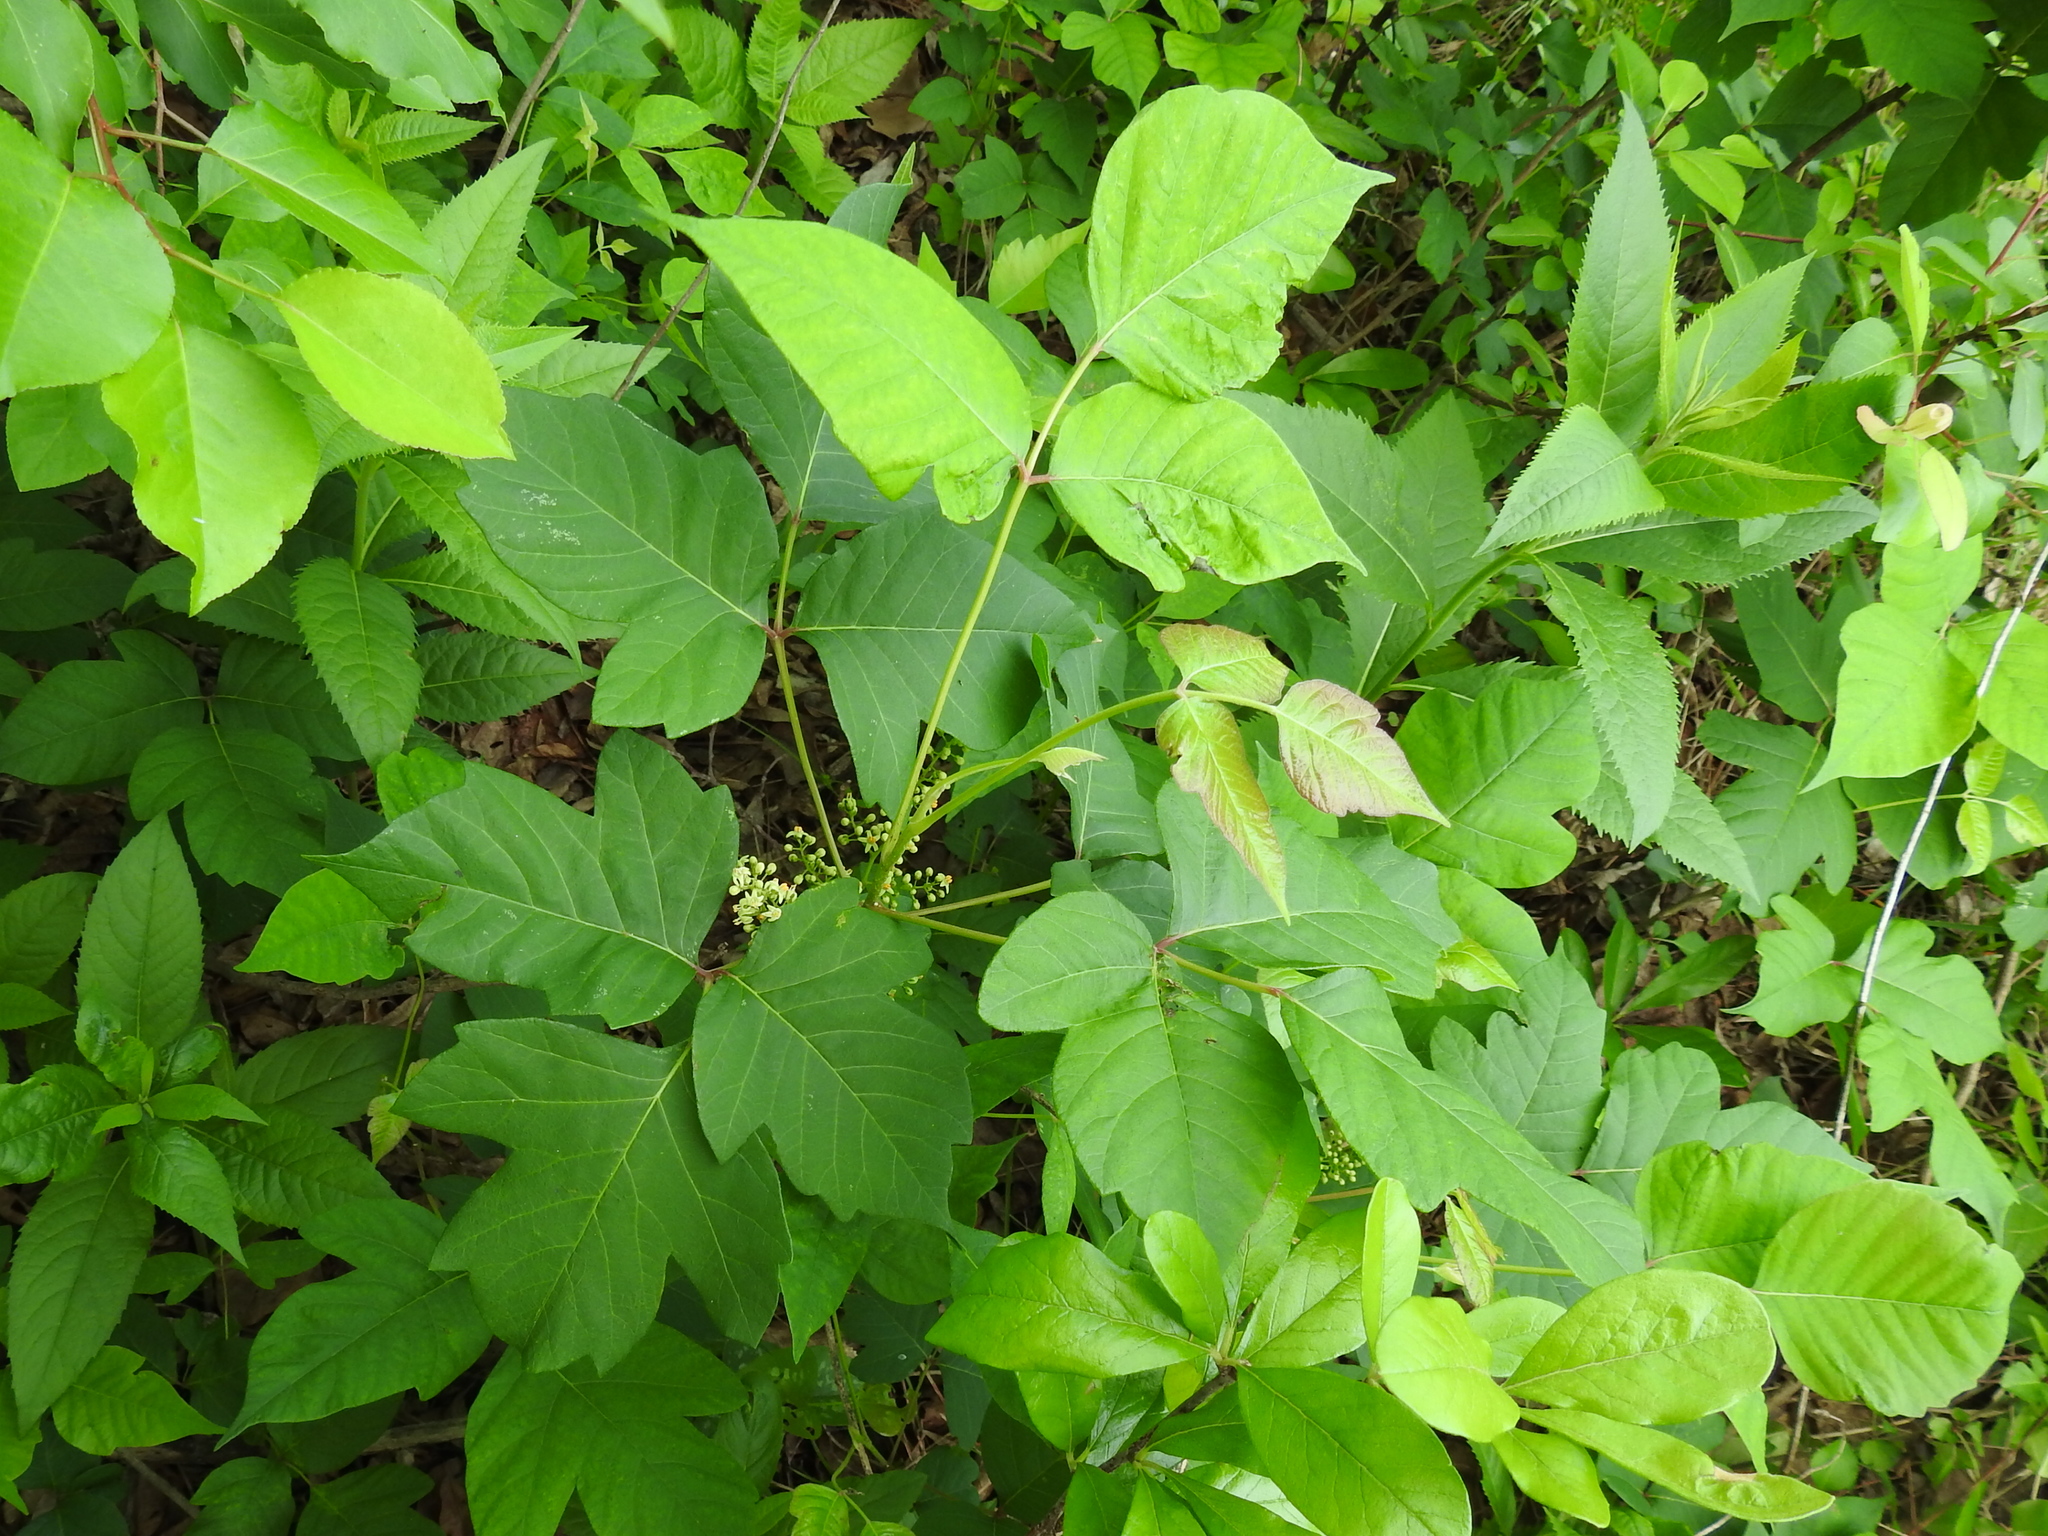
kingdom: Plantae
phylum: Tracheophyta
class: Magnoliopsida
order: Sapindales
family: Anacardiaceae
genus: Toxicodendron
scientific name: Toxicodendron radicans
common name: Poison ivy
